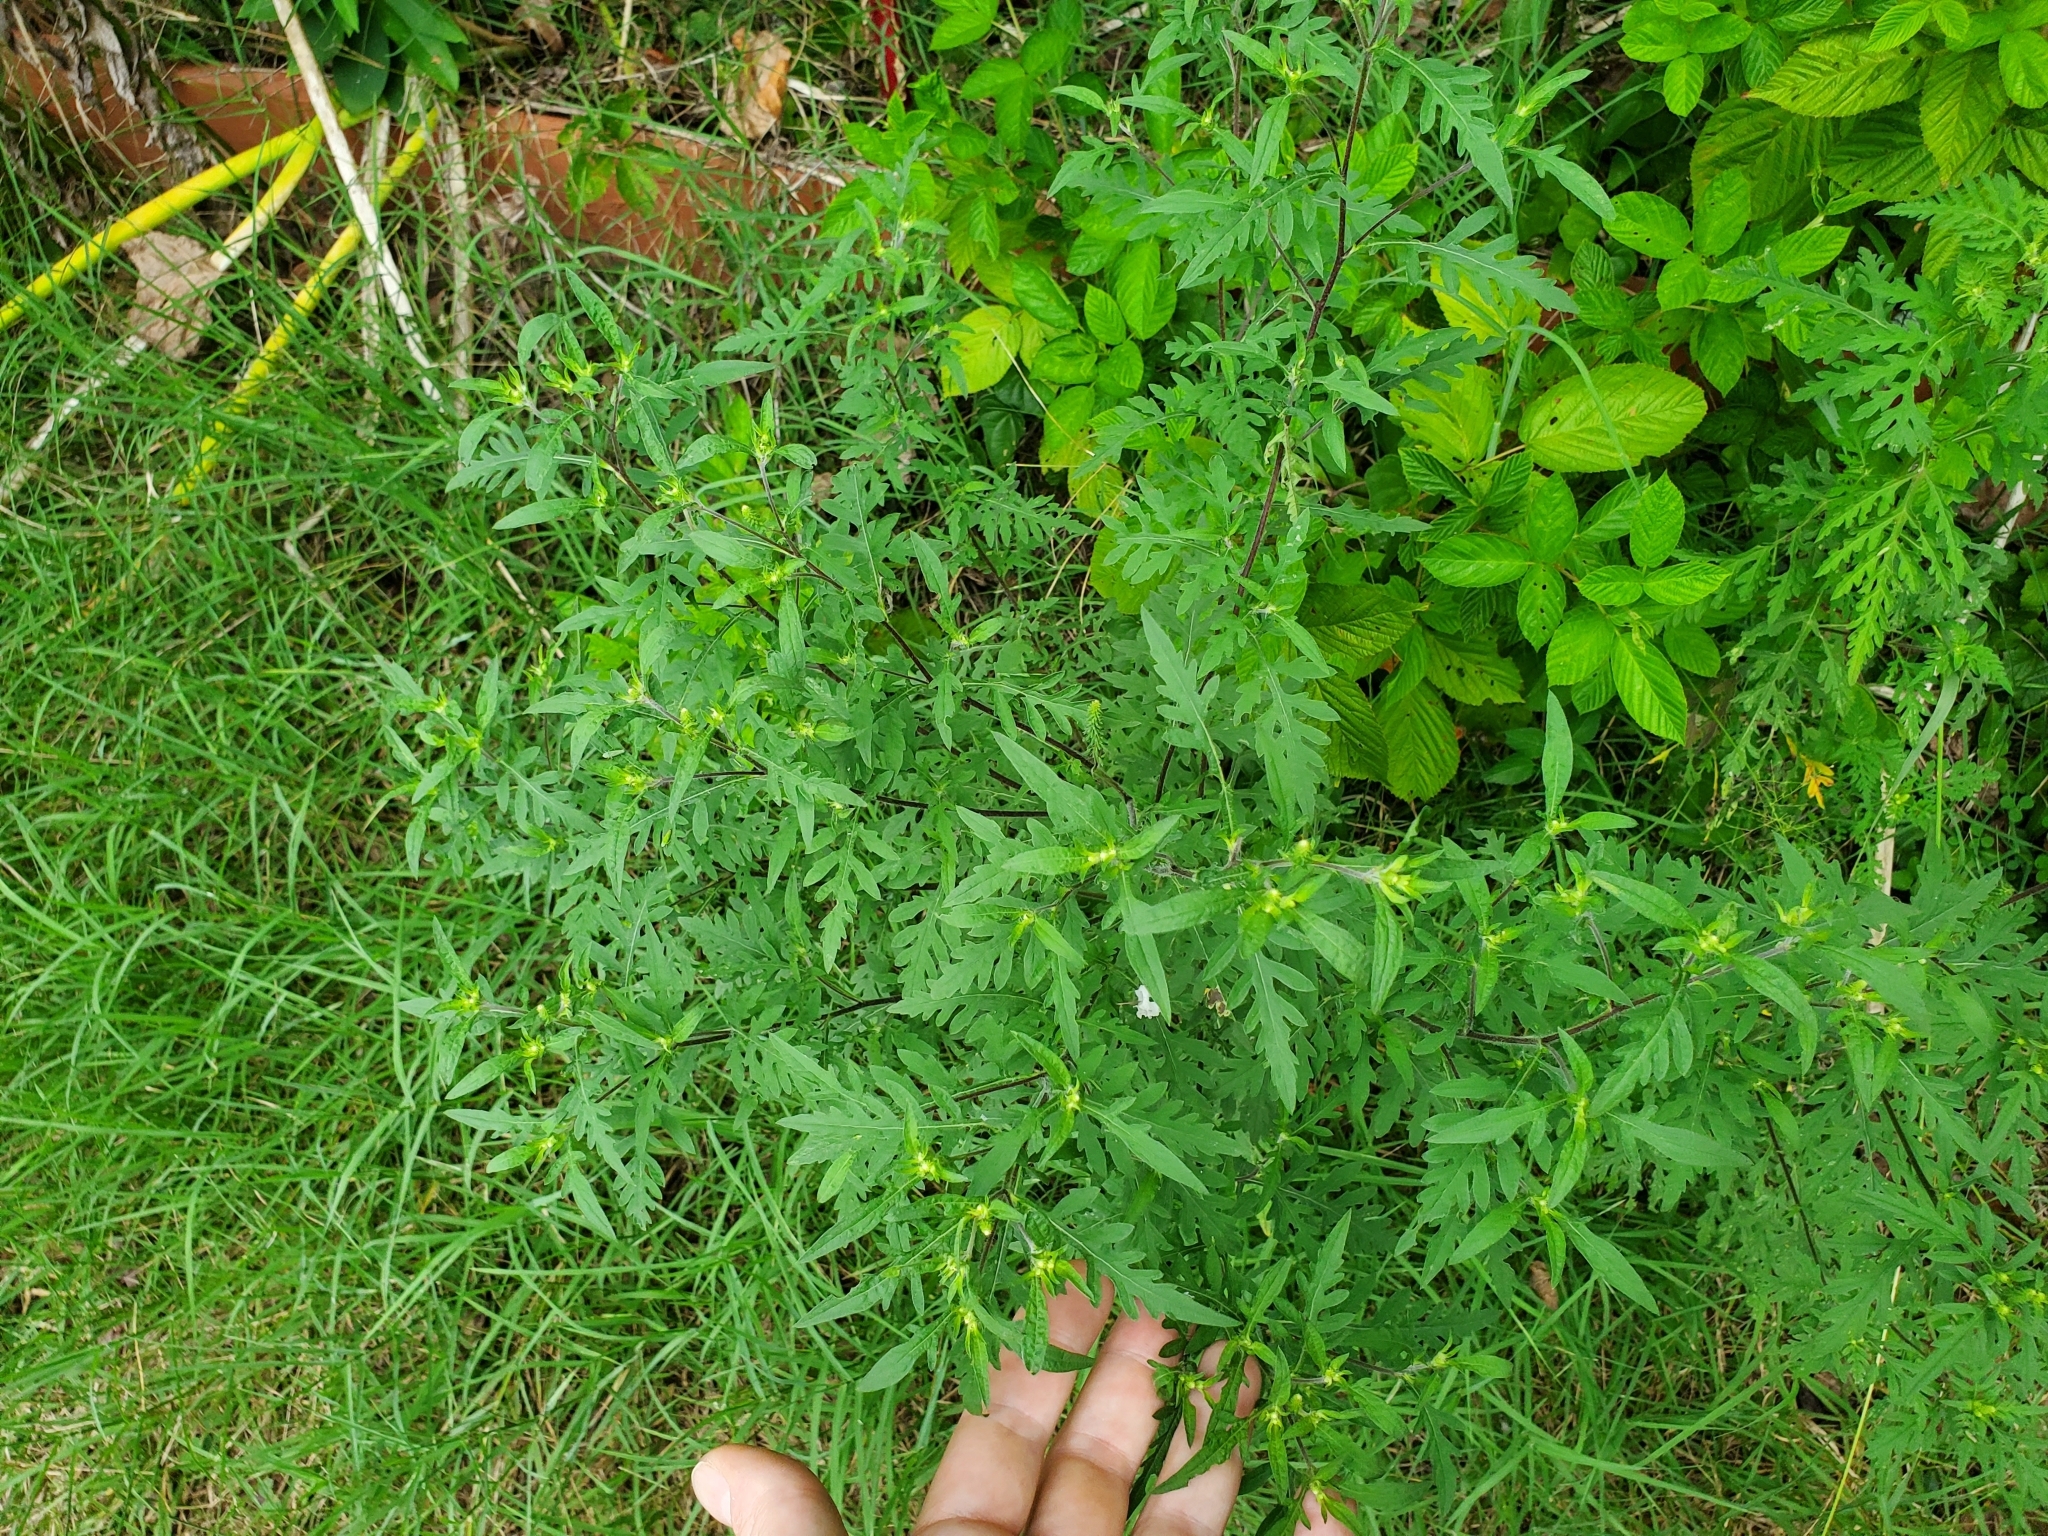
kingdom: Plantae
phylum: Tracheophyta
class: Magnoliopsida
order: Asterales
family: Asteraceae
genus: Ambrosia
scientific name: Ambrosia artemisiifolia
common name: Annual ragweed
